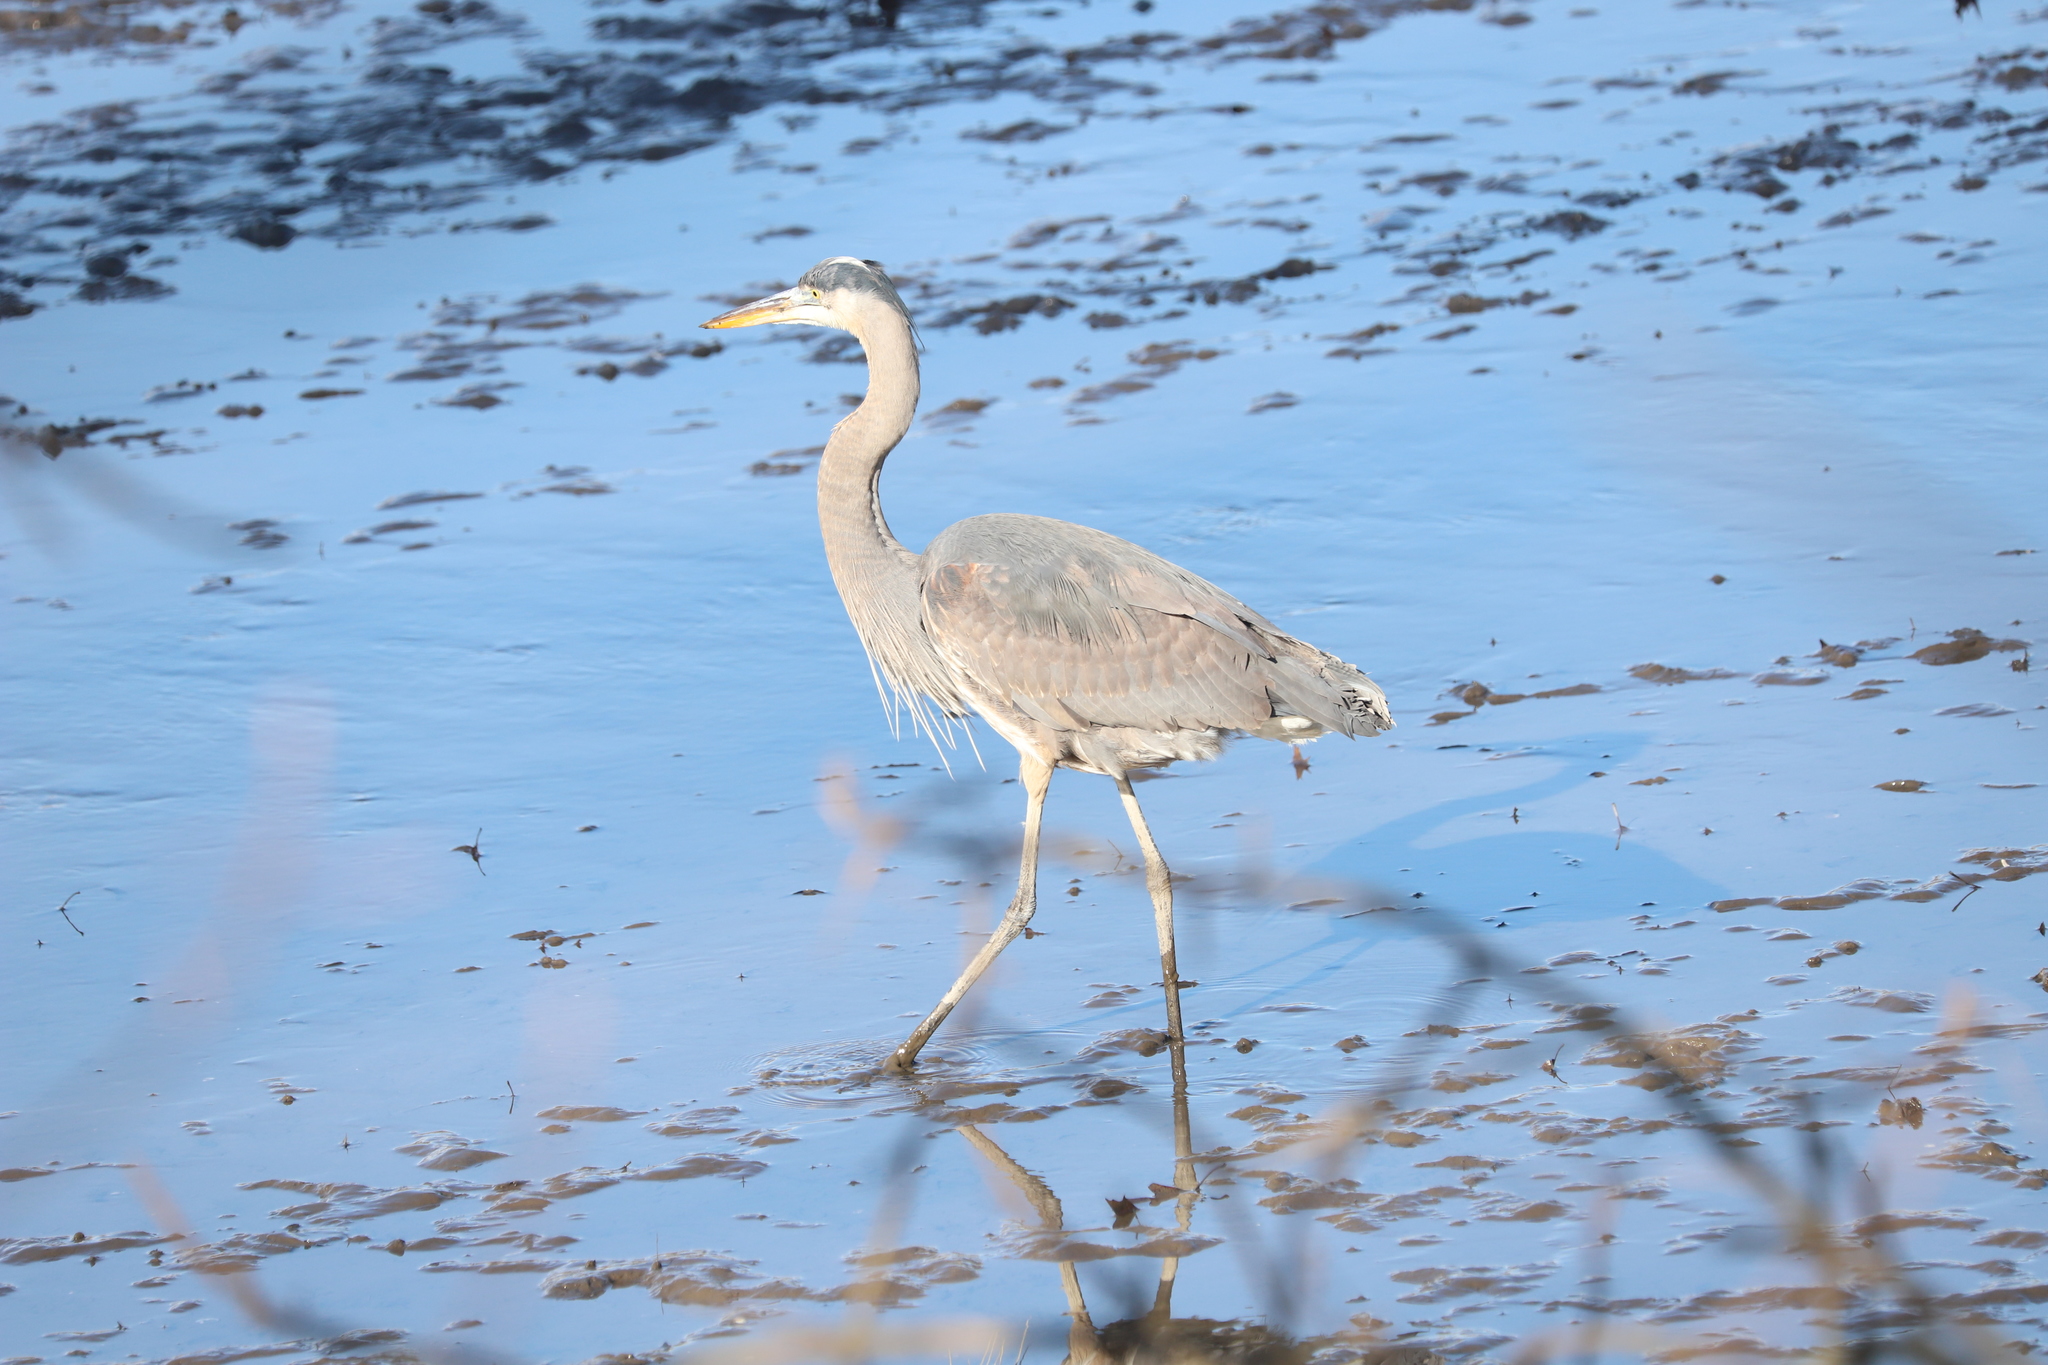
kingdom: Animalia
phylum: Chordata
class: Aves
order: Pelecaniformes
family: Ardeidae
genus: Ardea
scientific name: Ardea herodias
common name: Great blue heron
